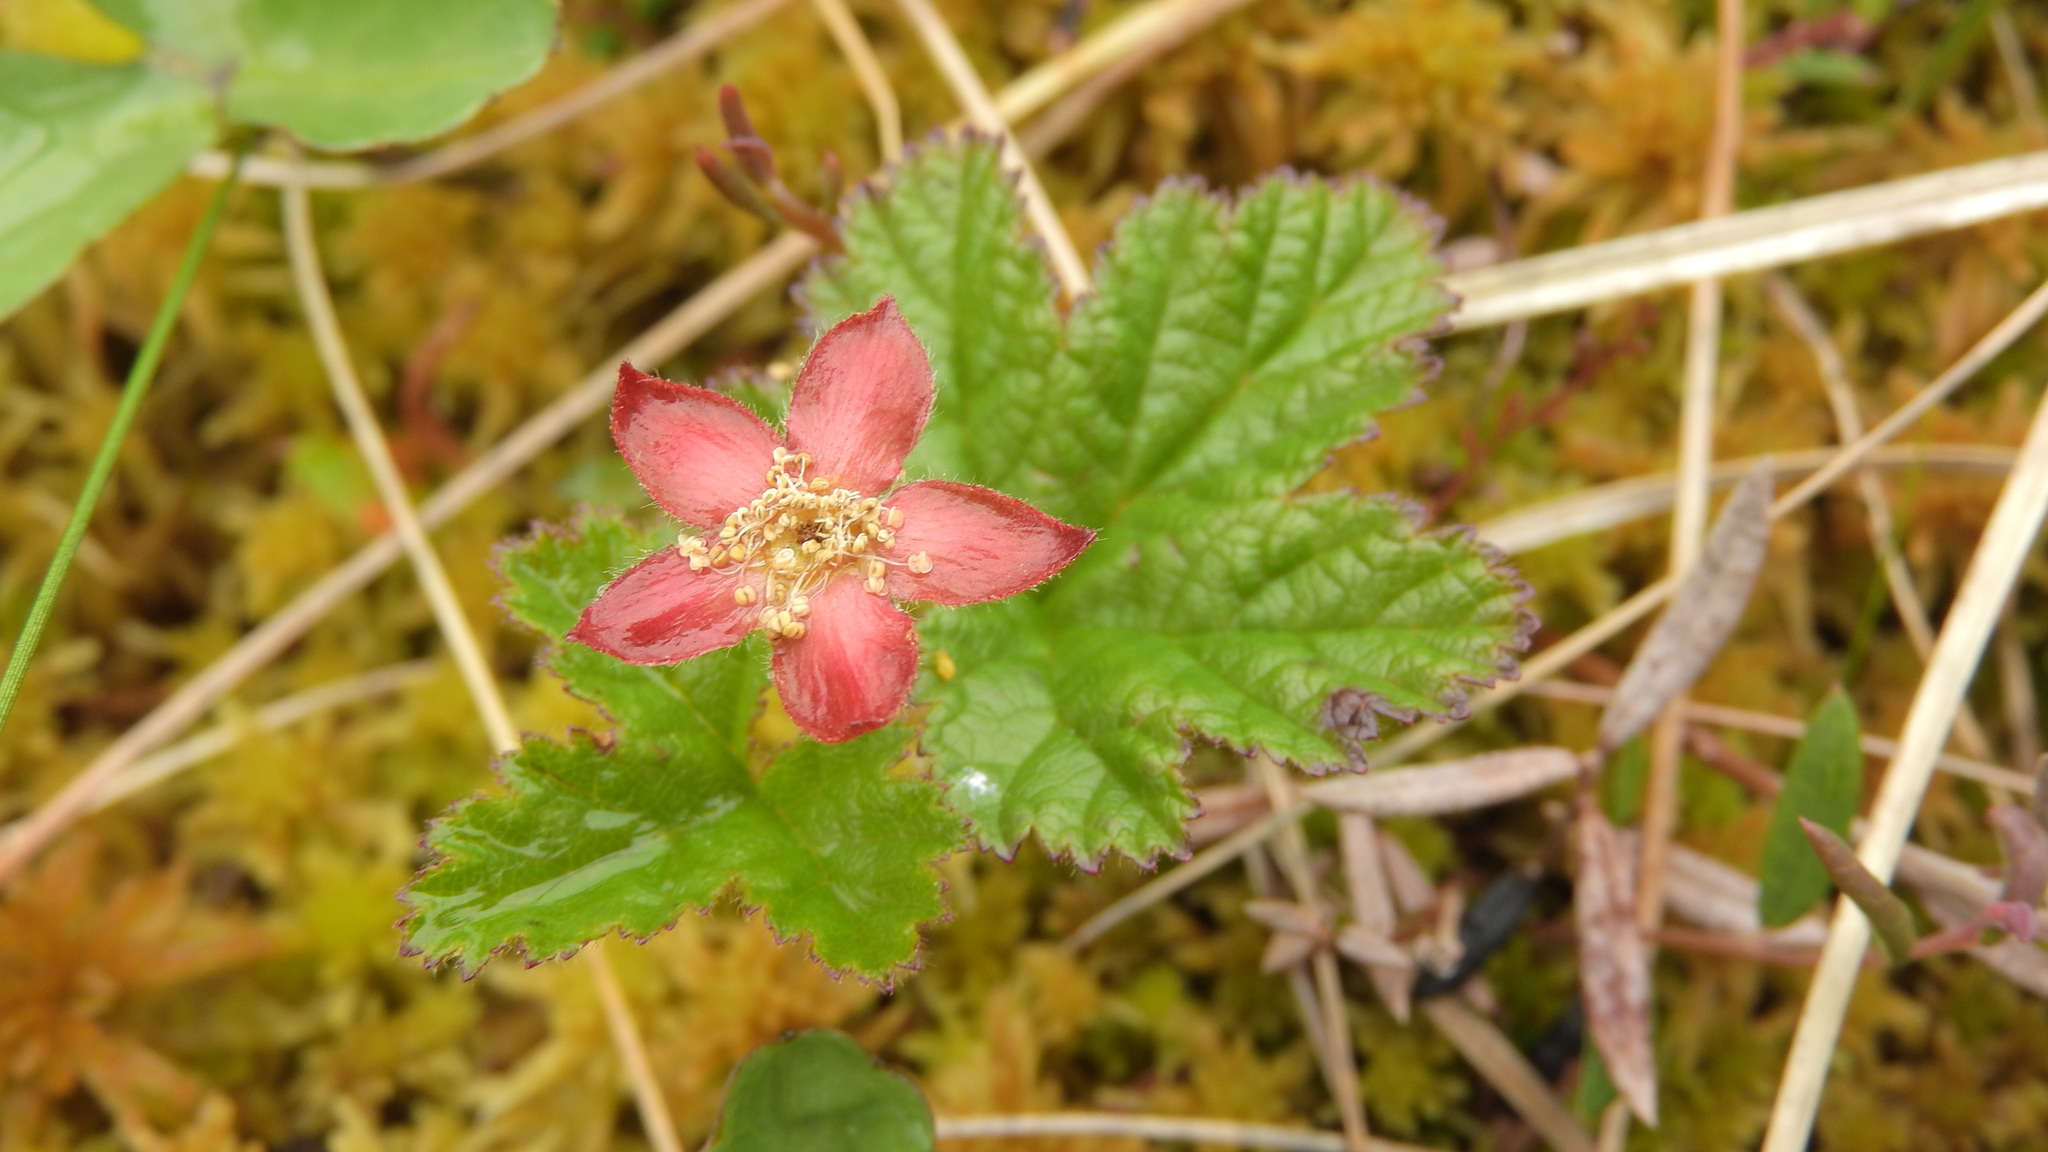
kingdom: Plantae
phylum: Tracheophyta
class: Magnoliopsida
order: Rosales
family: Rosaceae
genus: Rubus
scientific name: Rubus chamaemorus
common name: Cloudberry
